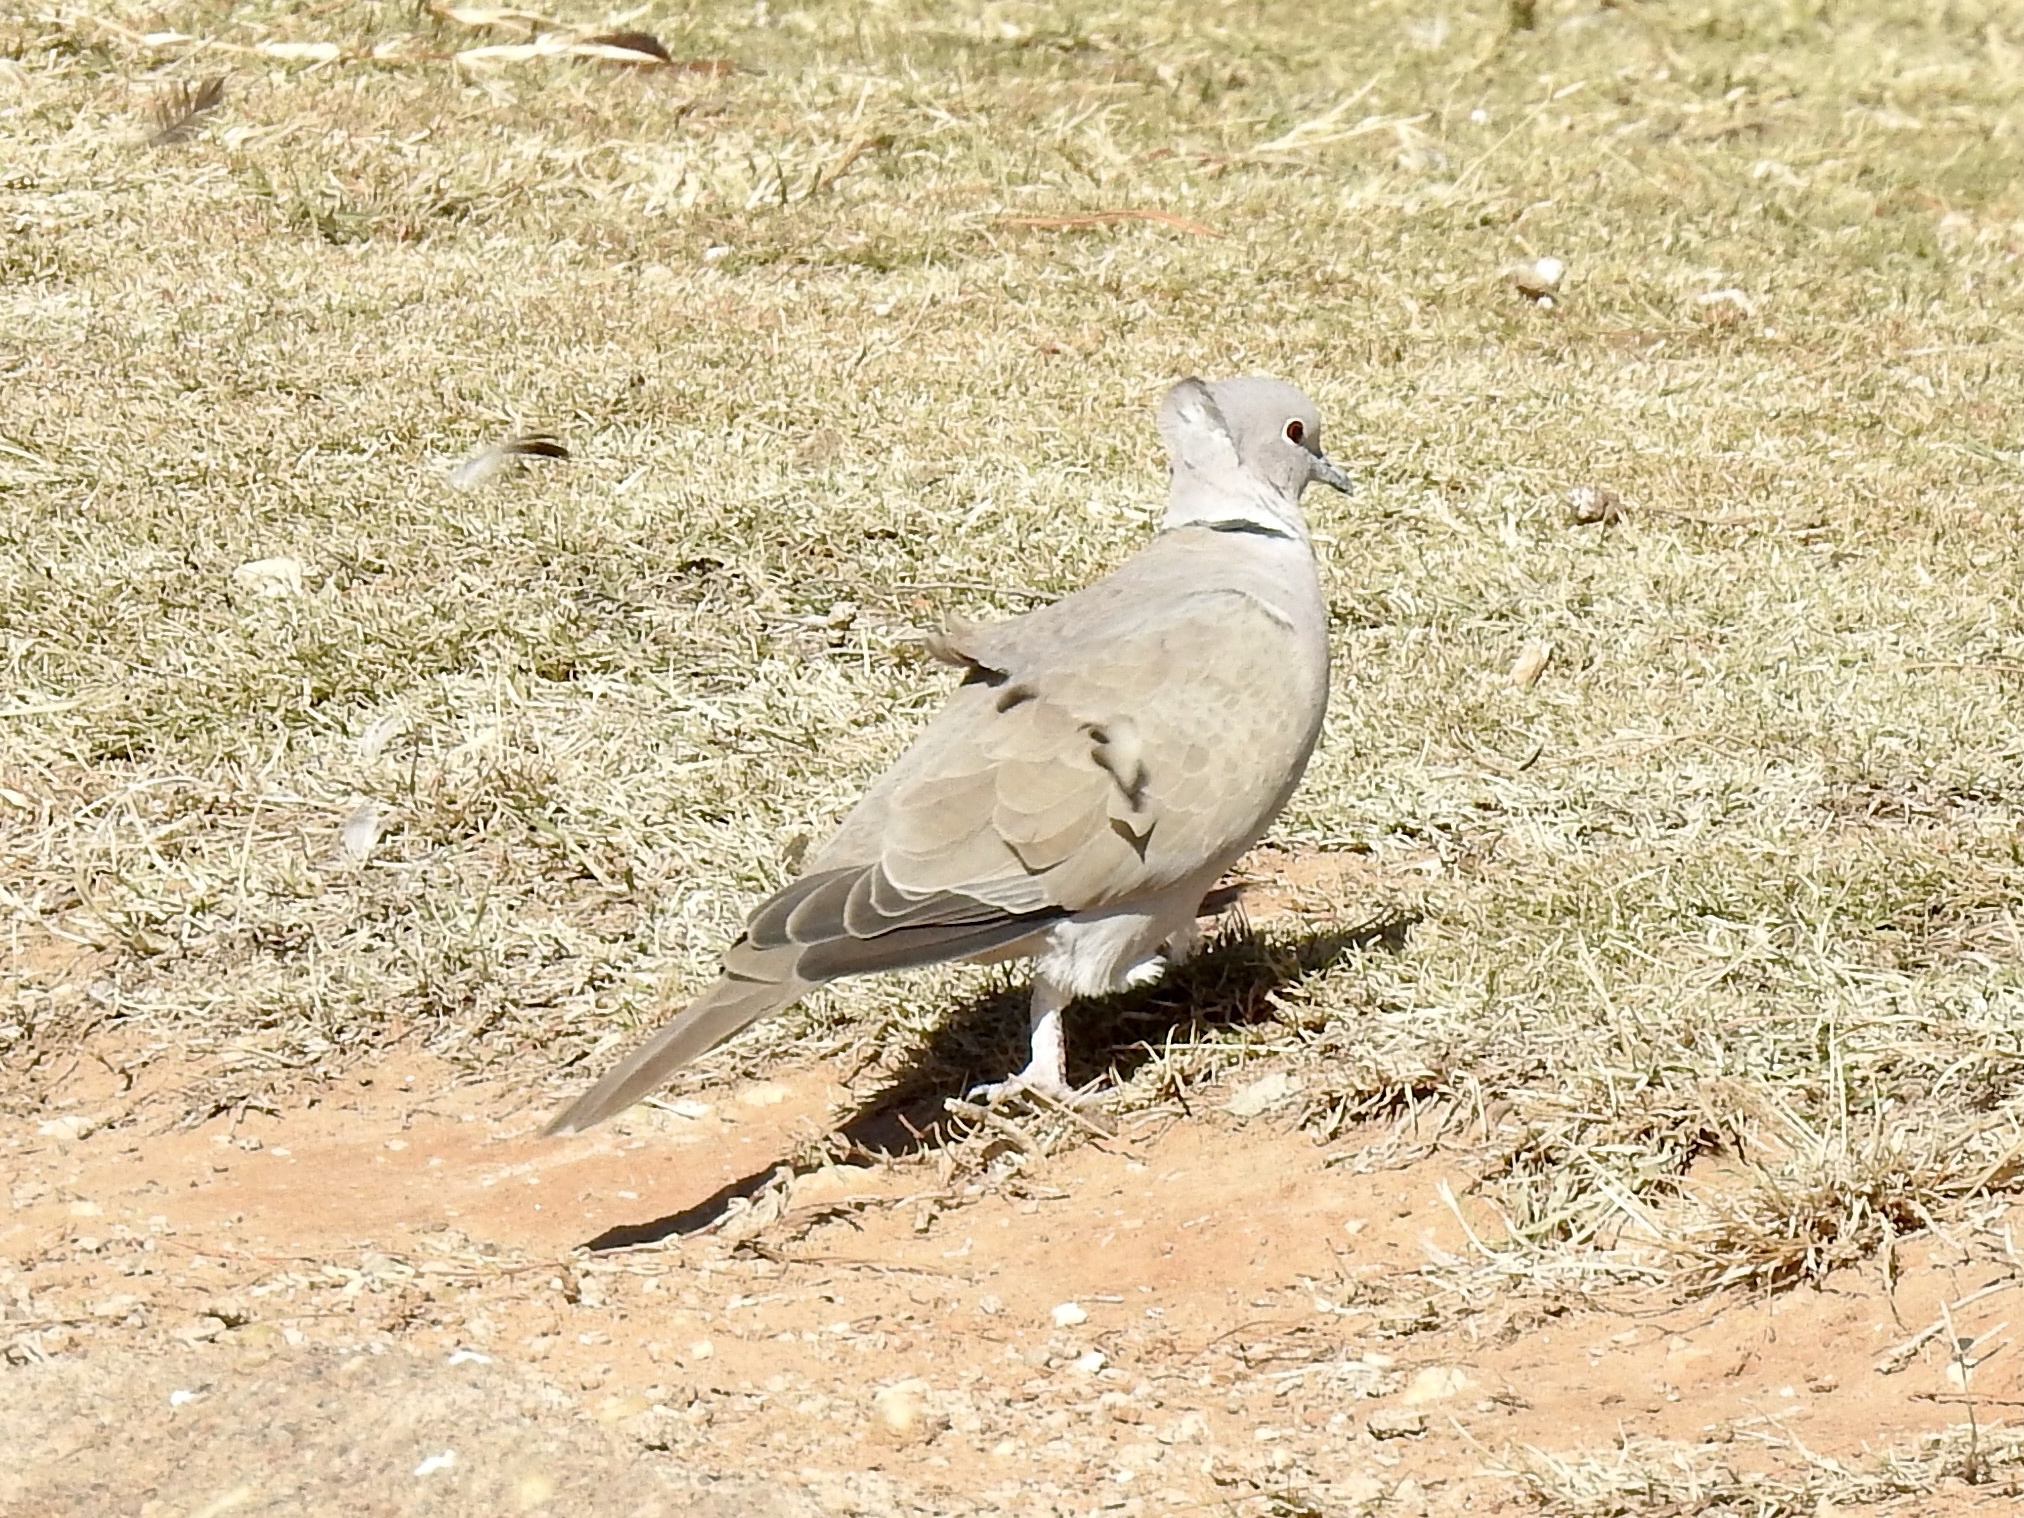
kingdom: Animalia
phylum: Chordata
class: Aves
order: Columbiformes
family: Columbidae
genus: Streptopelia
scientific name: Streptopelia decaocto
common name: Eurasian collared dove
